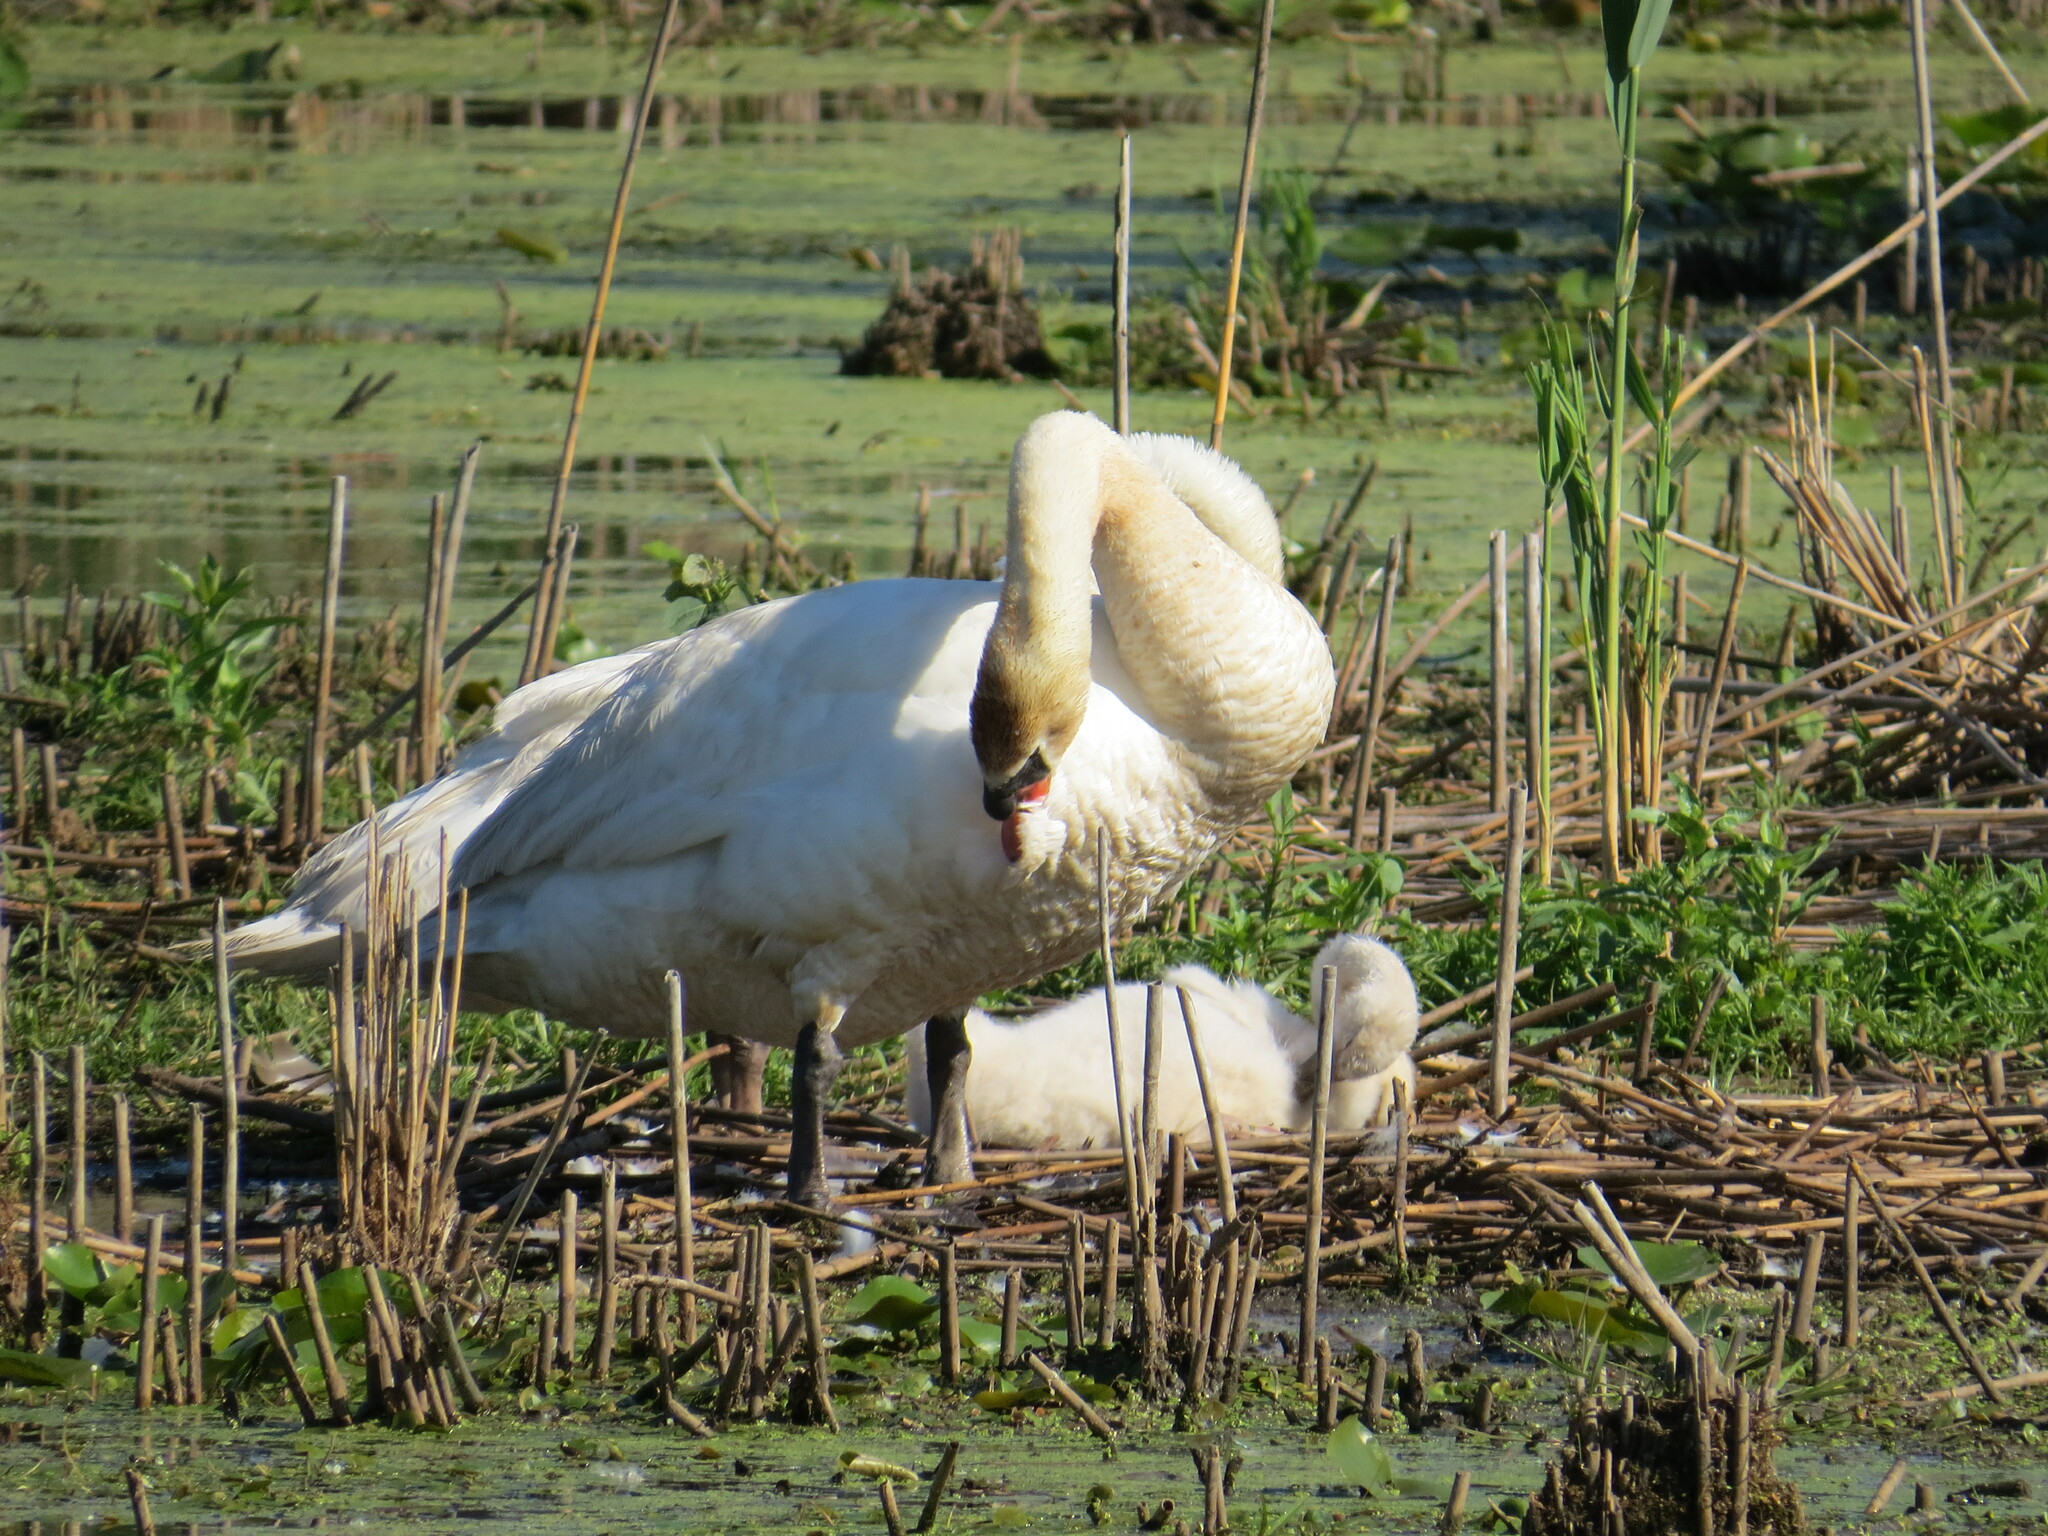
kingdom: Animalia
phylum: Chordata
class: Aves
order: Anseriformes
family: Anatidae
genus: Cygnus
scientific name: Cygnus olor
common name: Mute swan
